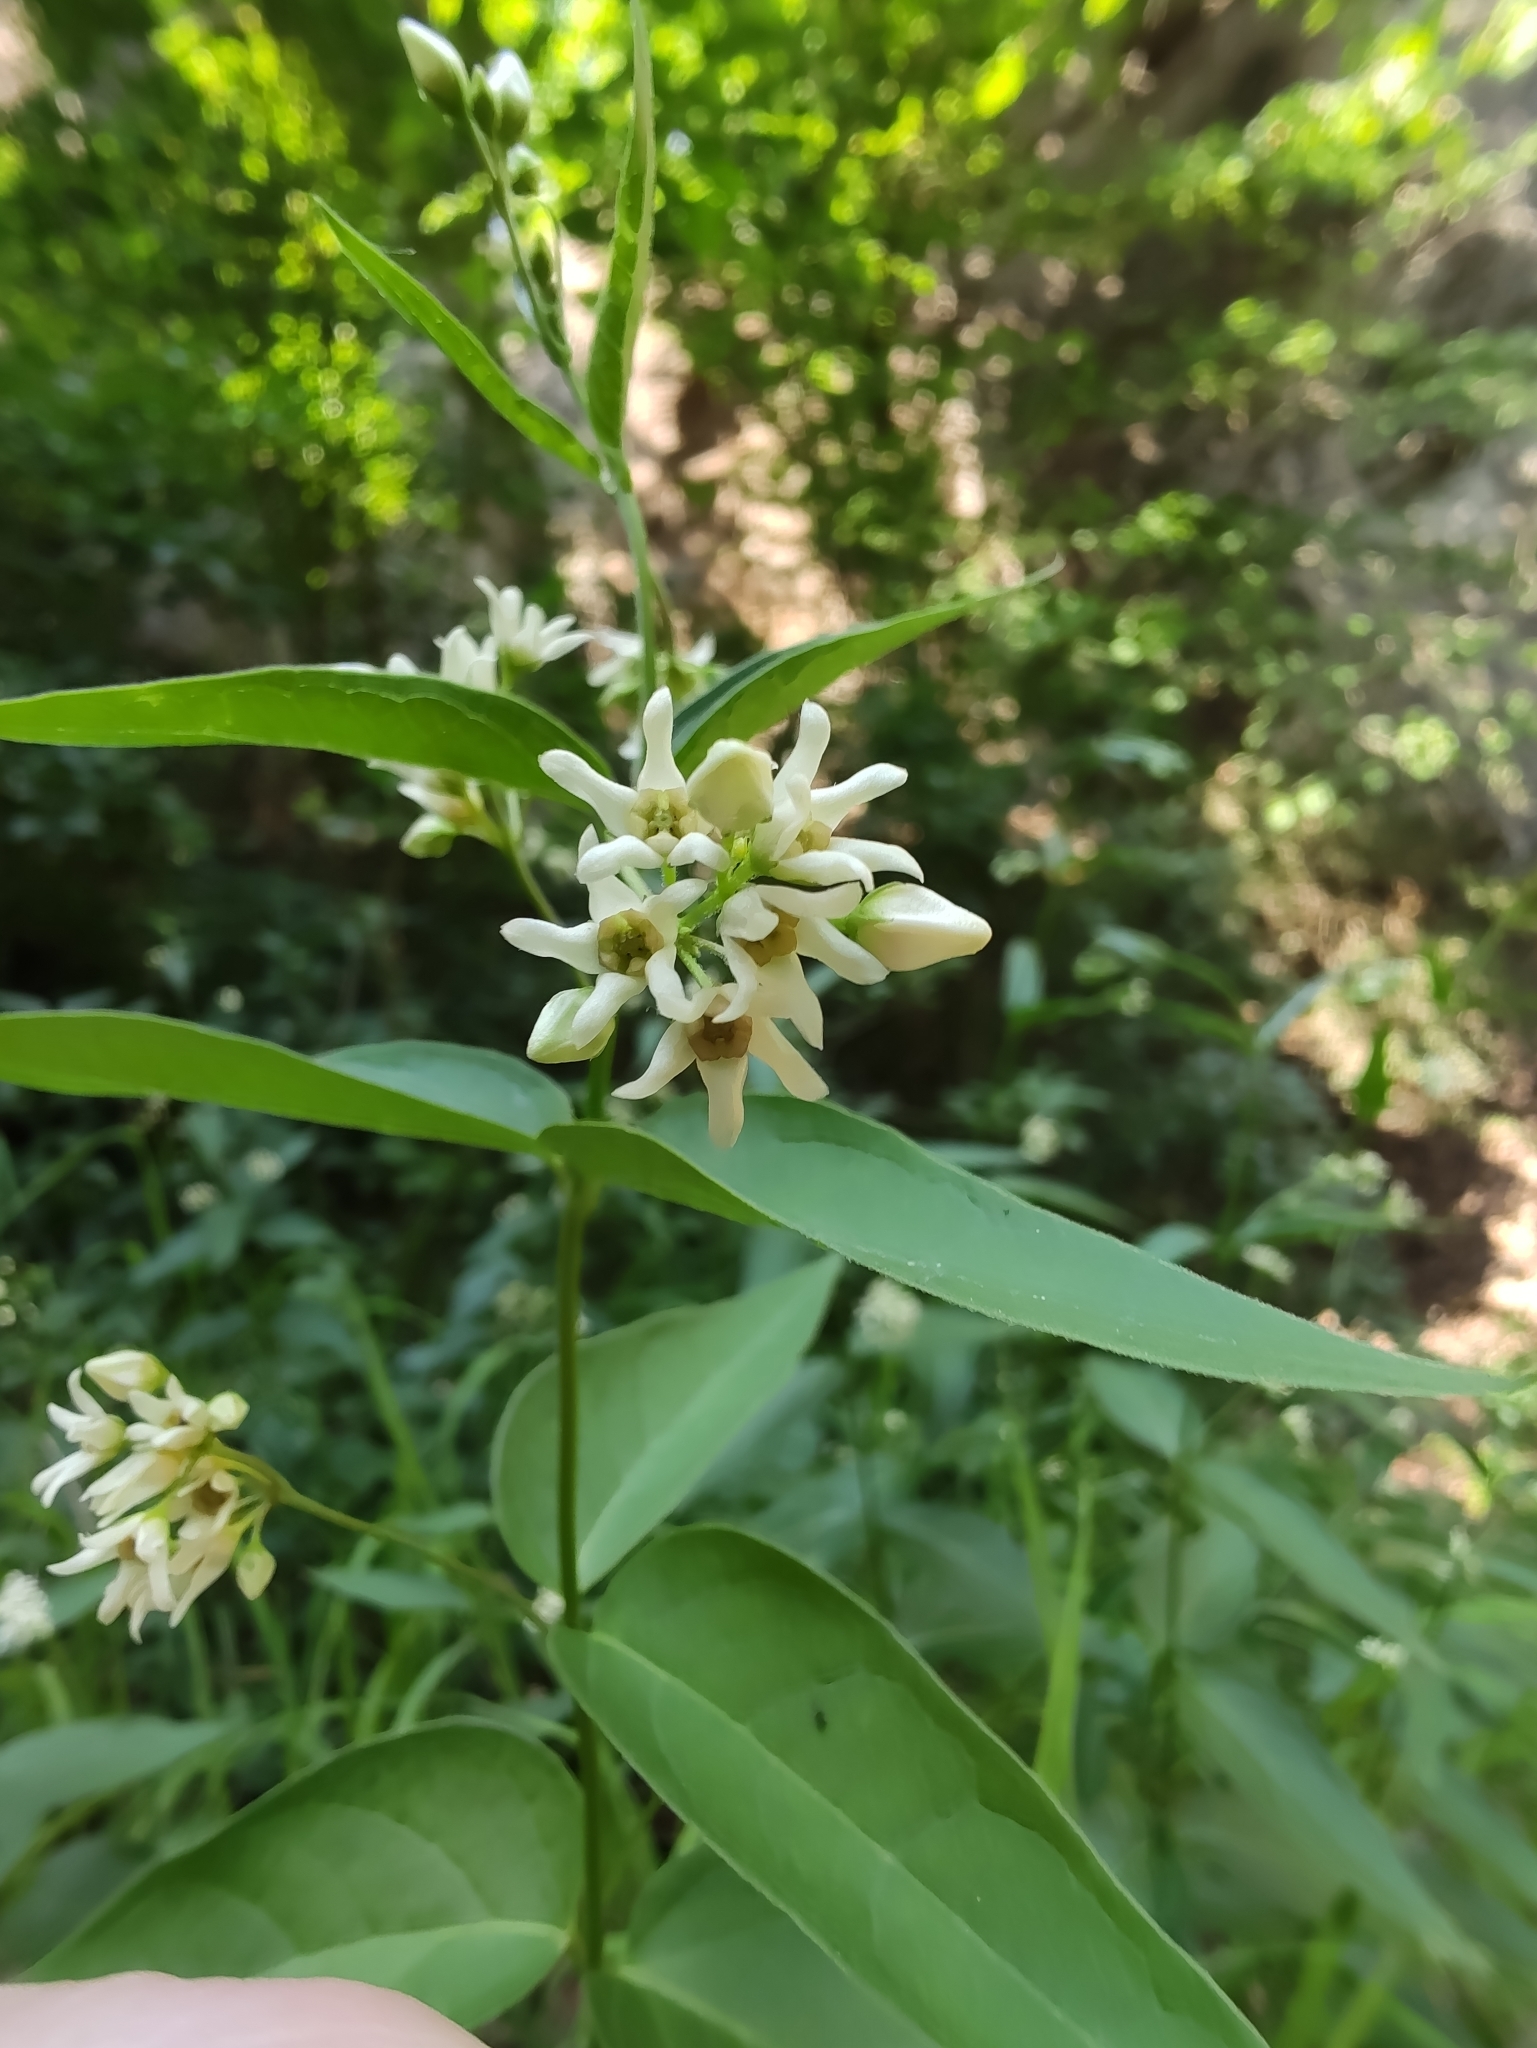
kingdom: Plantae
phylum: Tracheophyta
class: Magnoliopsida
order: Gentianales
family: Apocynaceae
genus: Vincetoxicum
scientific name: Vincetoxicum hirundinaria
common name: White swallowwort
